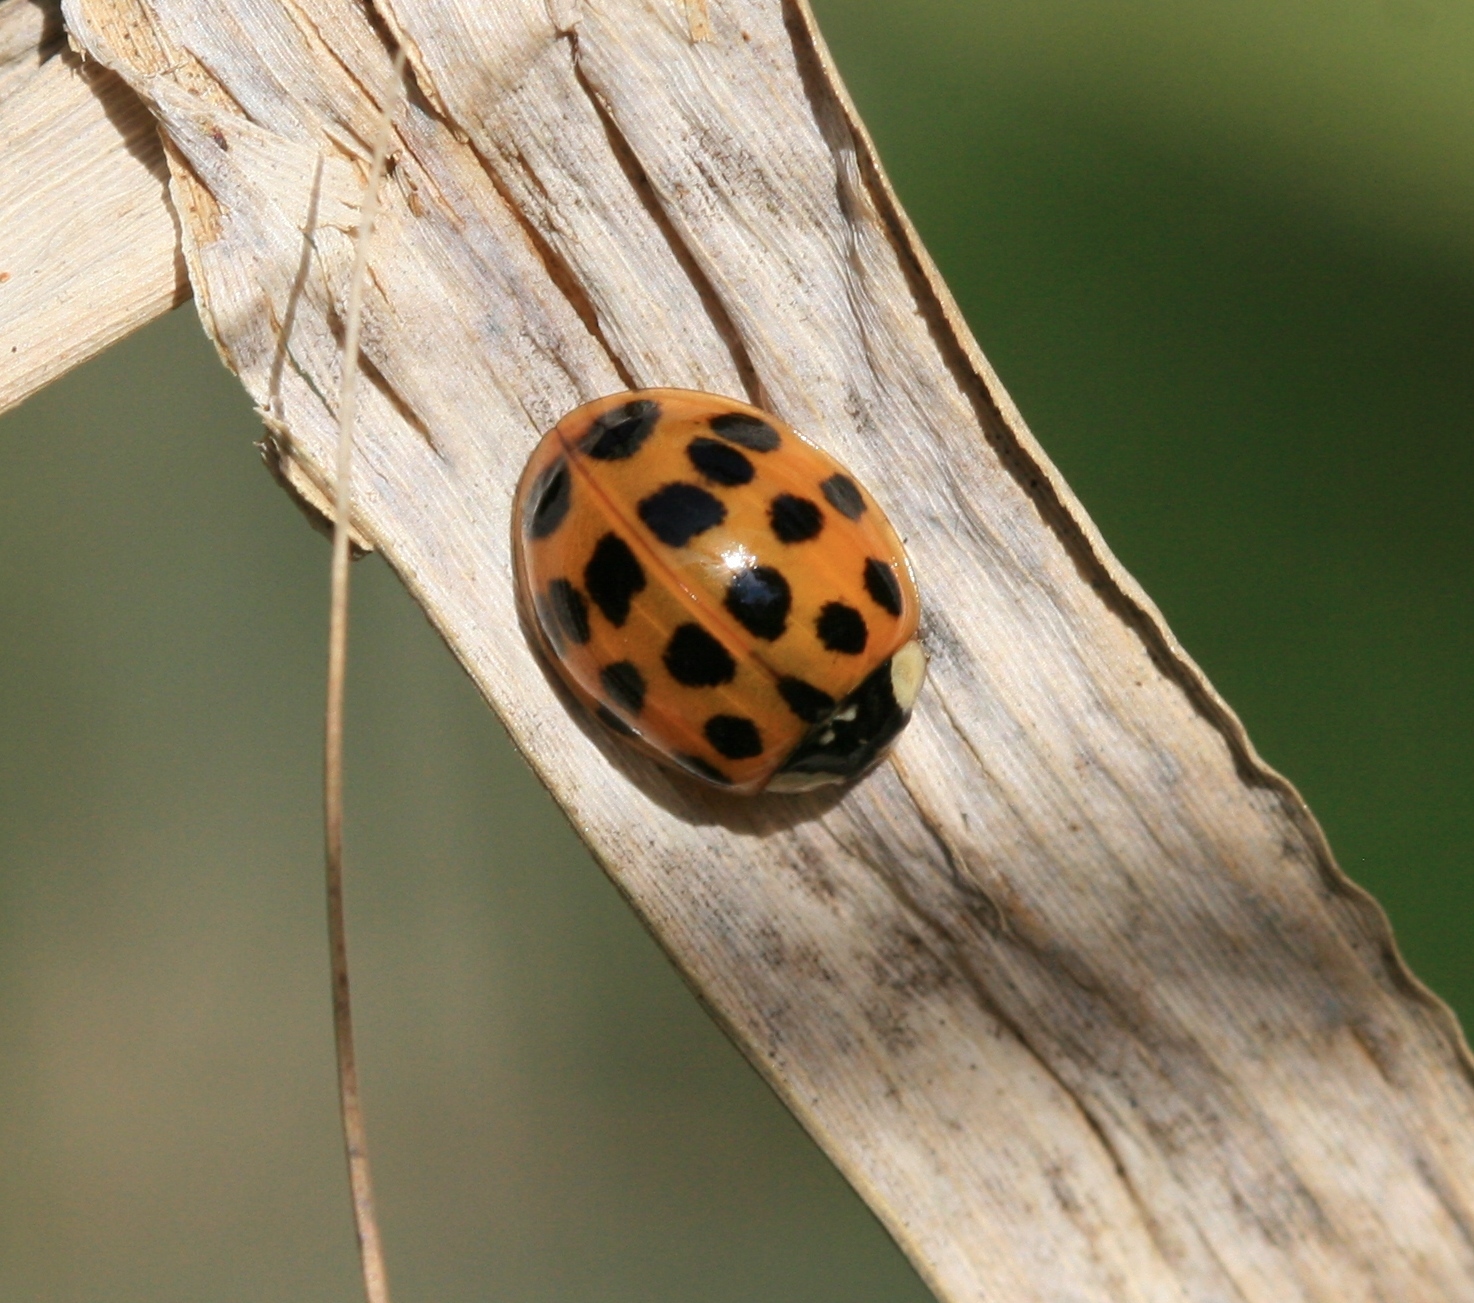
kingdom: Animalia
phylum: Arthropoda
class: Insecta
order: Coleoptera
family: Coccinellidae
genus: Harmonia
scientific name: Harmonia axyridis
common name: Harlequin ladybird
